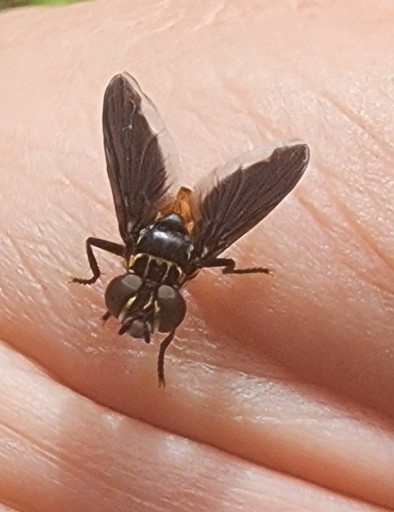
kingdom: Animalia
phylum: Arthropoda
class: Insecta
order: Diptera
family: Tachinidae
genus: Trichopoda
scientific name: Trichopoda pennipes
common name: Tachinid fly
